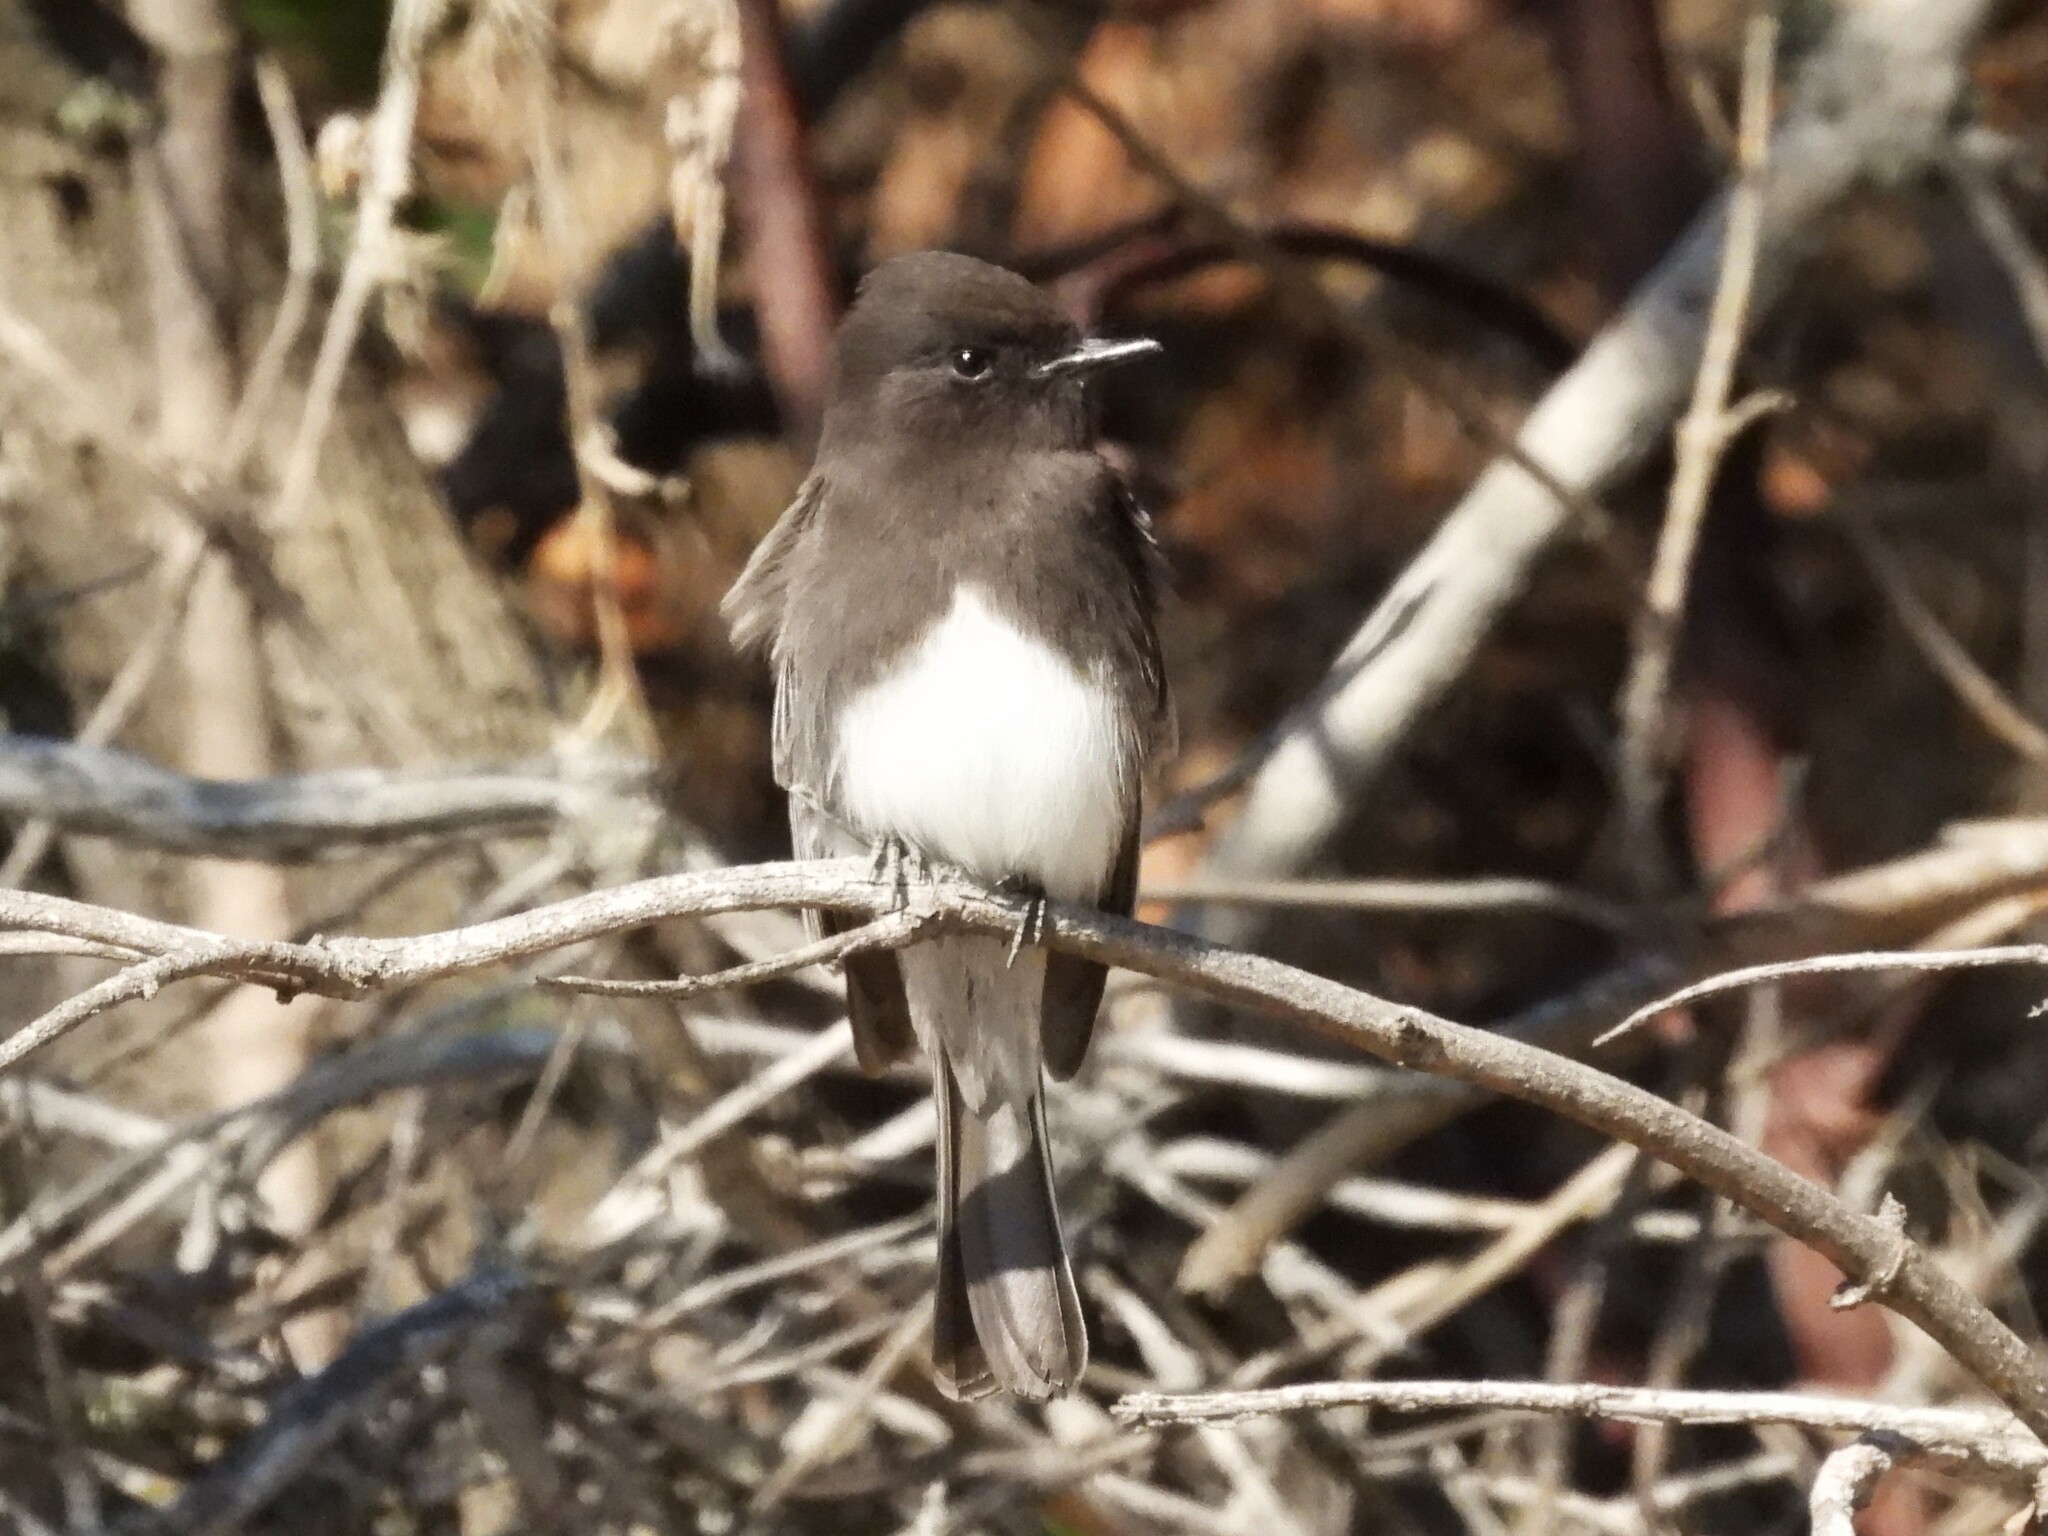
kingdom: Animalia
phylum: Chordata
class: Aves
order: Passeriformes
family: Tyrannidae
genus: Sayornis
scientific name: Sayornis nigricans
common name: Black phoebe
